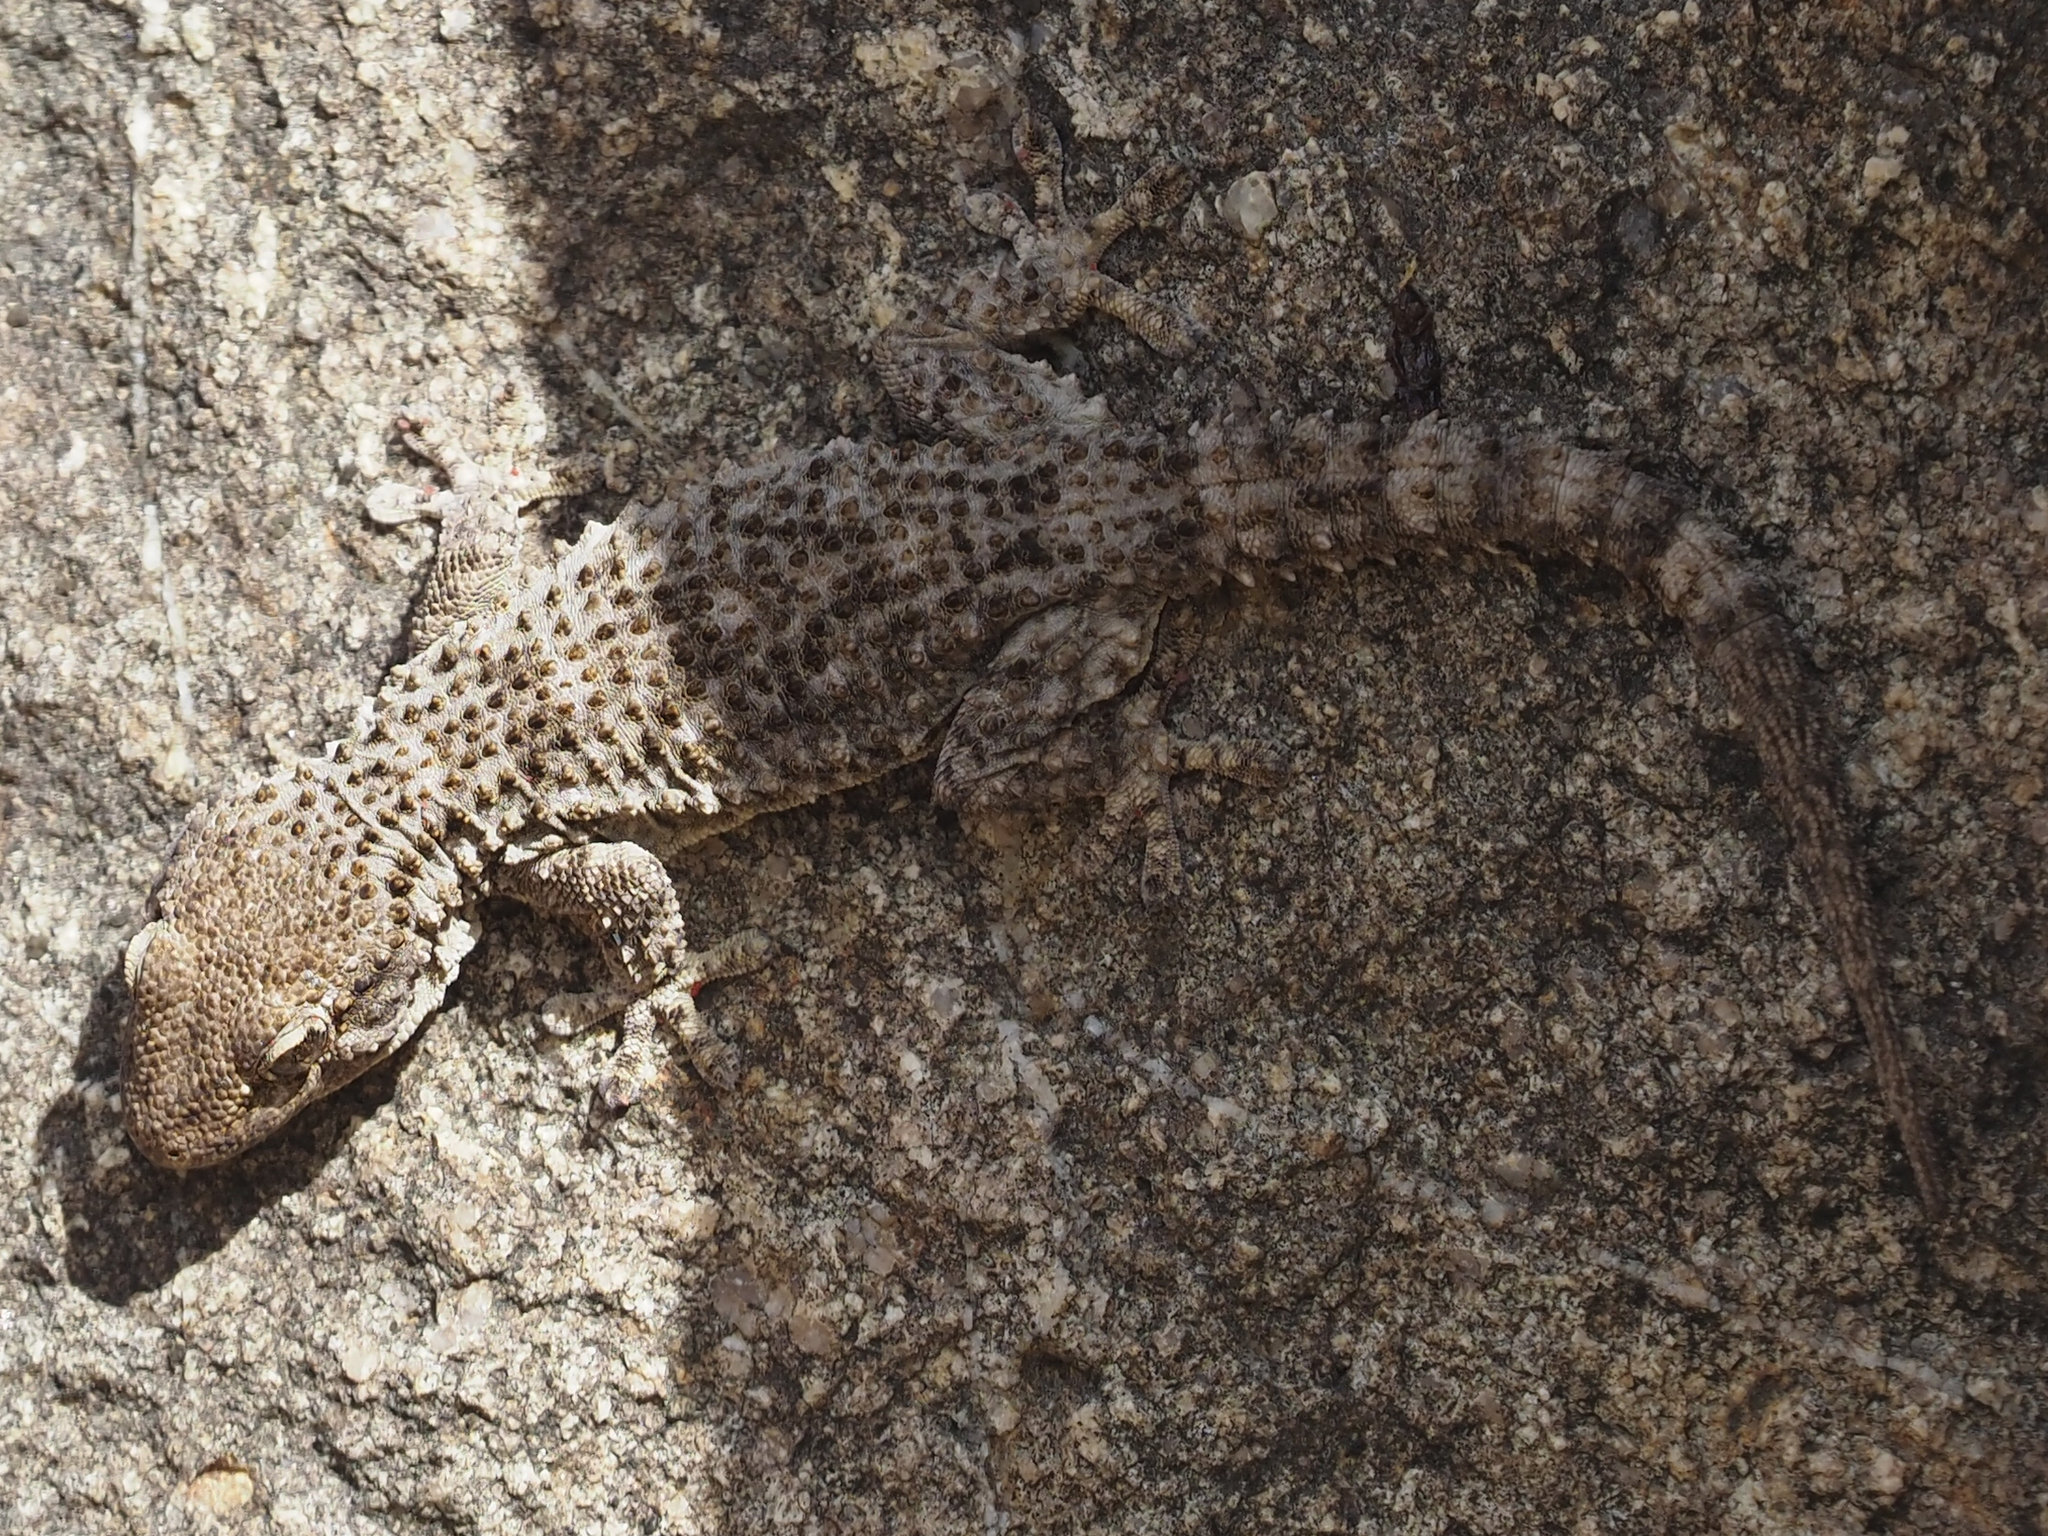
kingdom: Animalia
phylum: Chordata
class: Squamata
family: Phyllodactylidae
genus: Tarentola
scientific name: Tarentola mauritanica
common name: Moorish gecko
